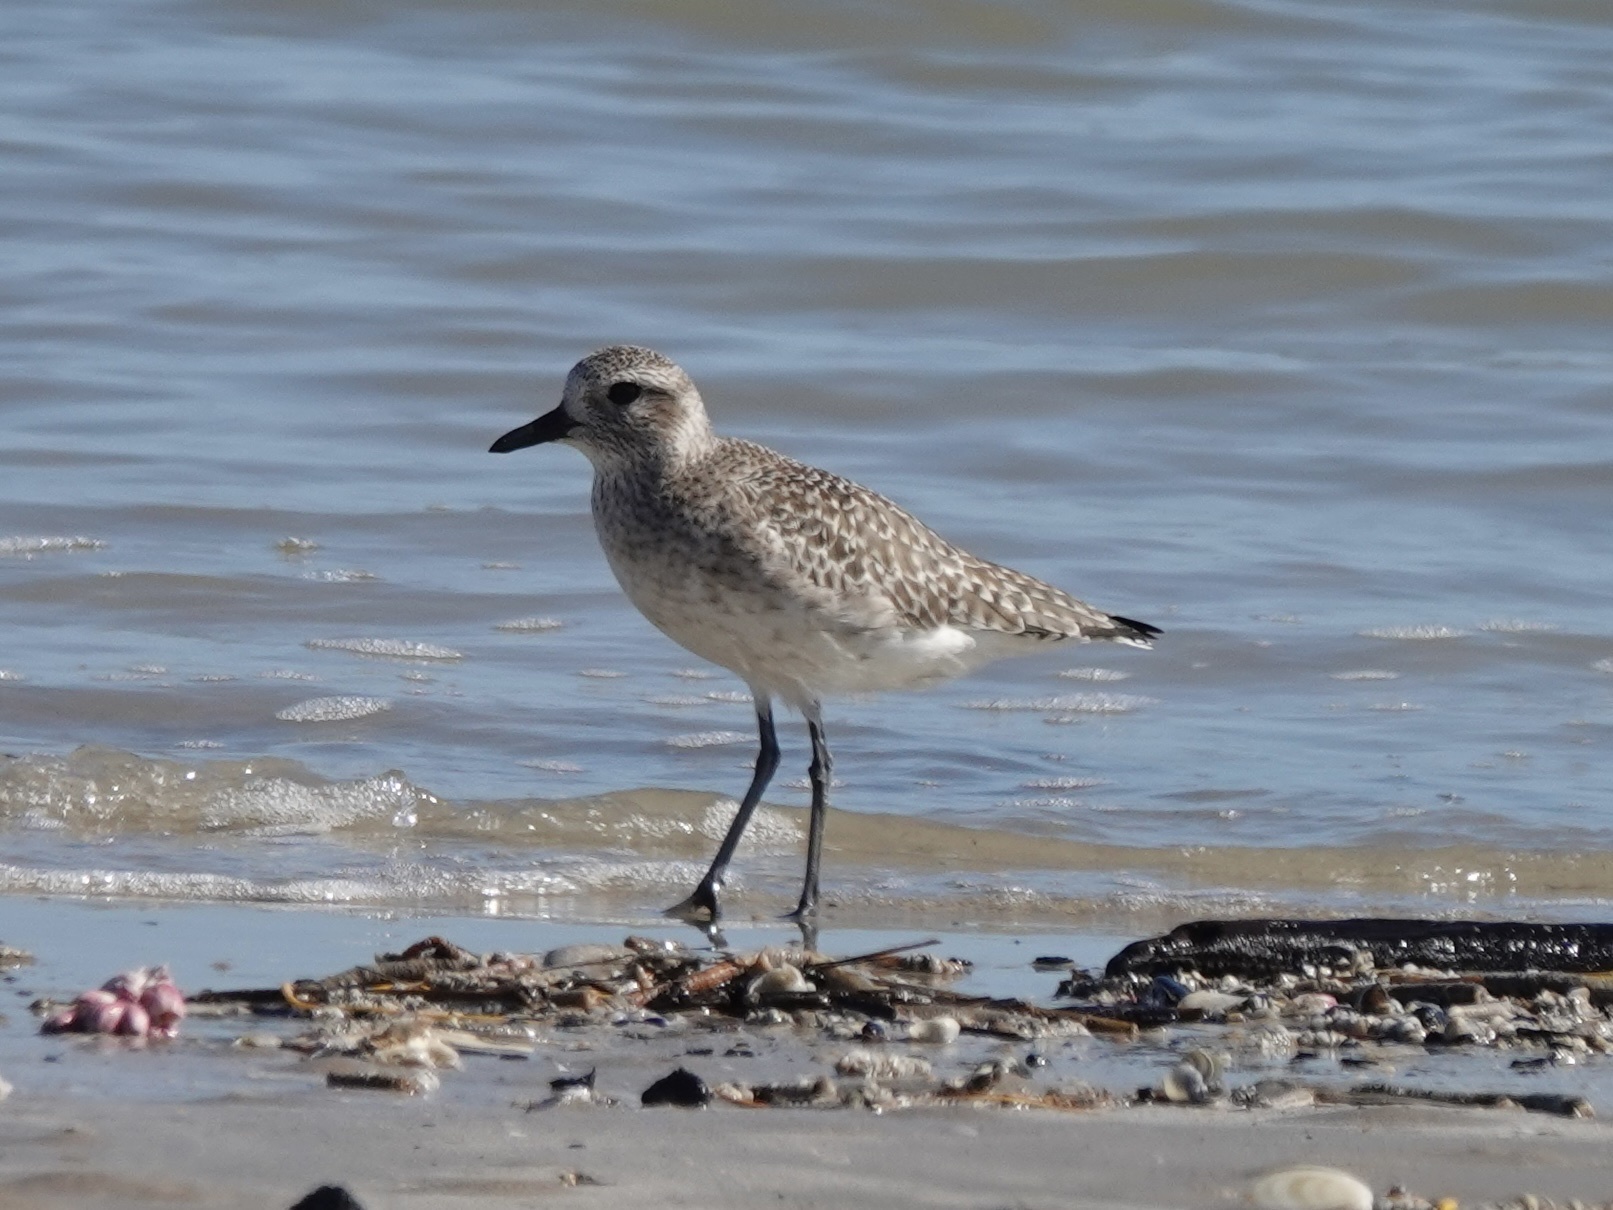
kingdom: Animalia
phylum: Chordata
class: Aves
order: Charadriiformes
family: Charadriidae
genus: Pluvialis
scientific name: Pluvialis squatarola
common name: Grey plover
